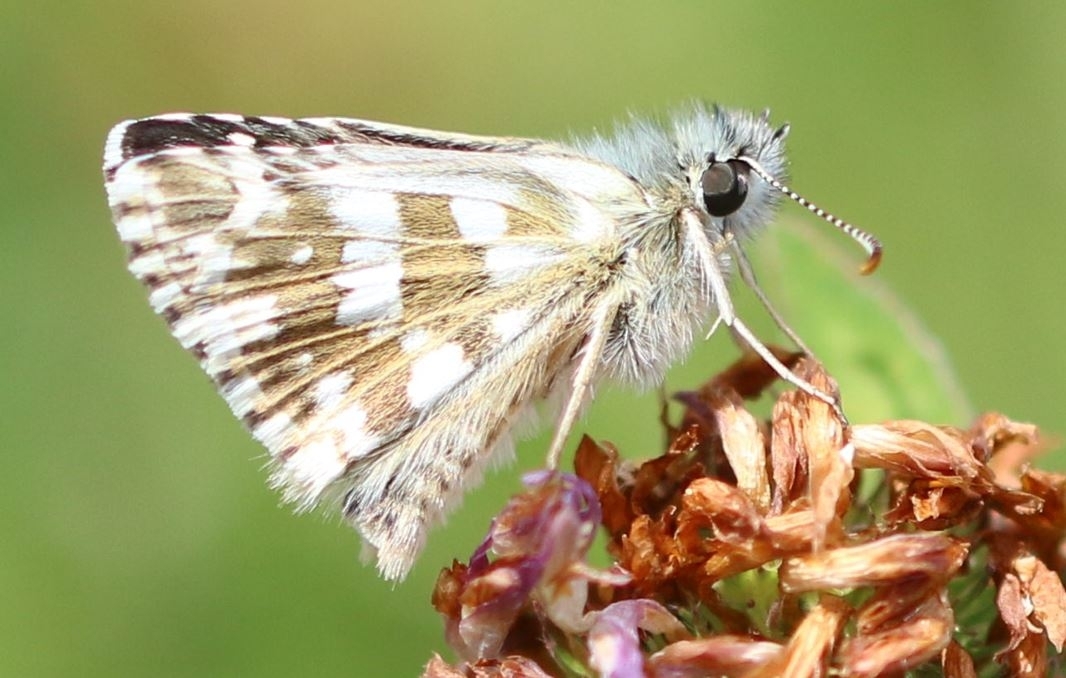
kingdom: Animalia
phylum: Arthropoda
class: Insecta
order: Lepidoptera
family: Hesperiidae
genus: Pyrgus
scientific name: Pyrgus armoricanus
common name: Oberthür's grizzled skipper
